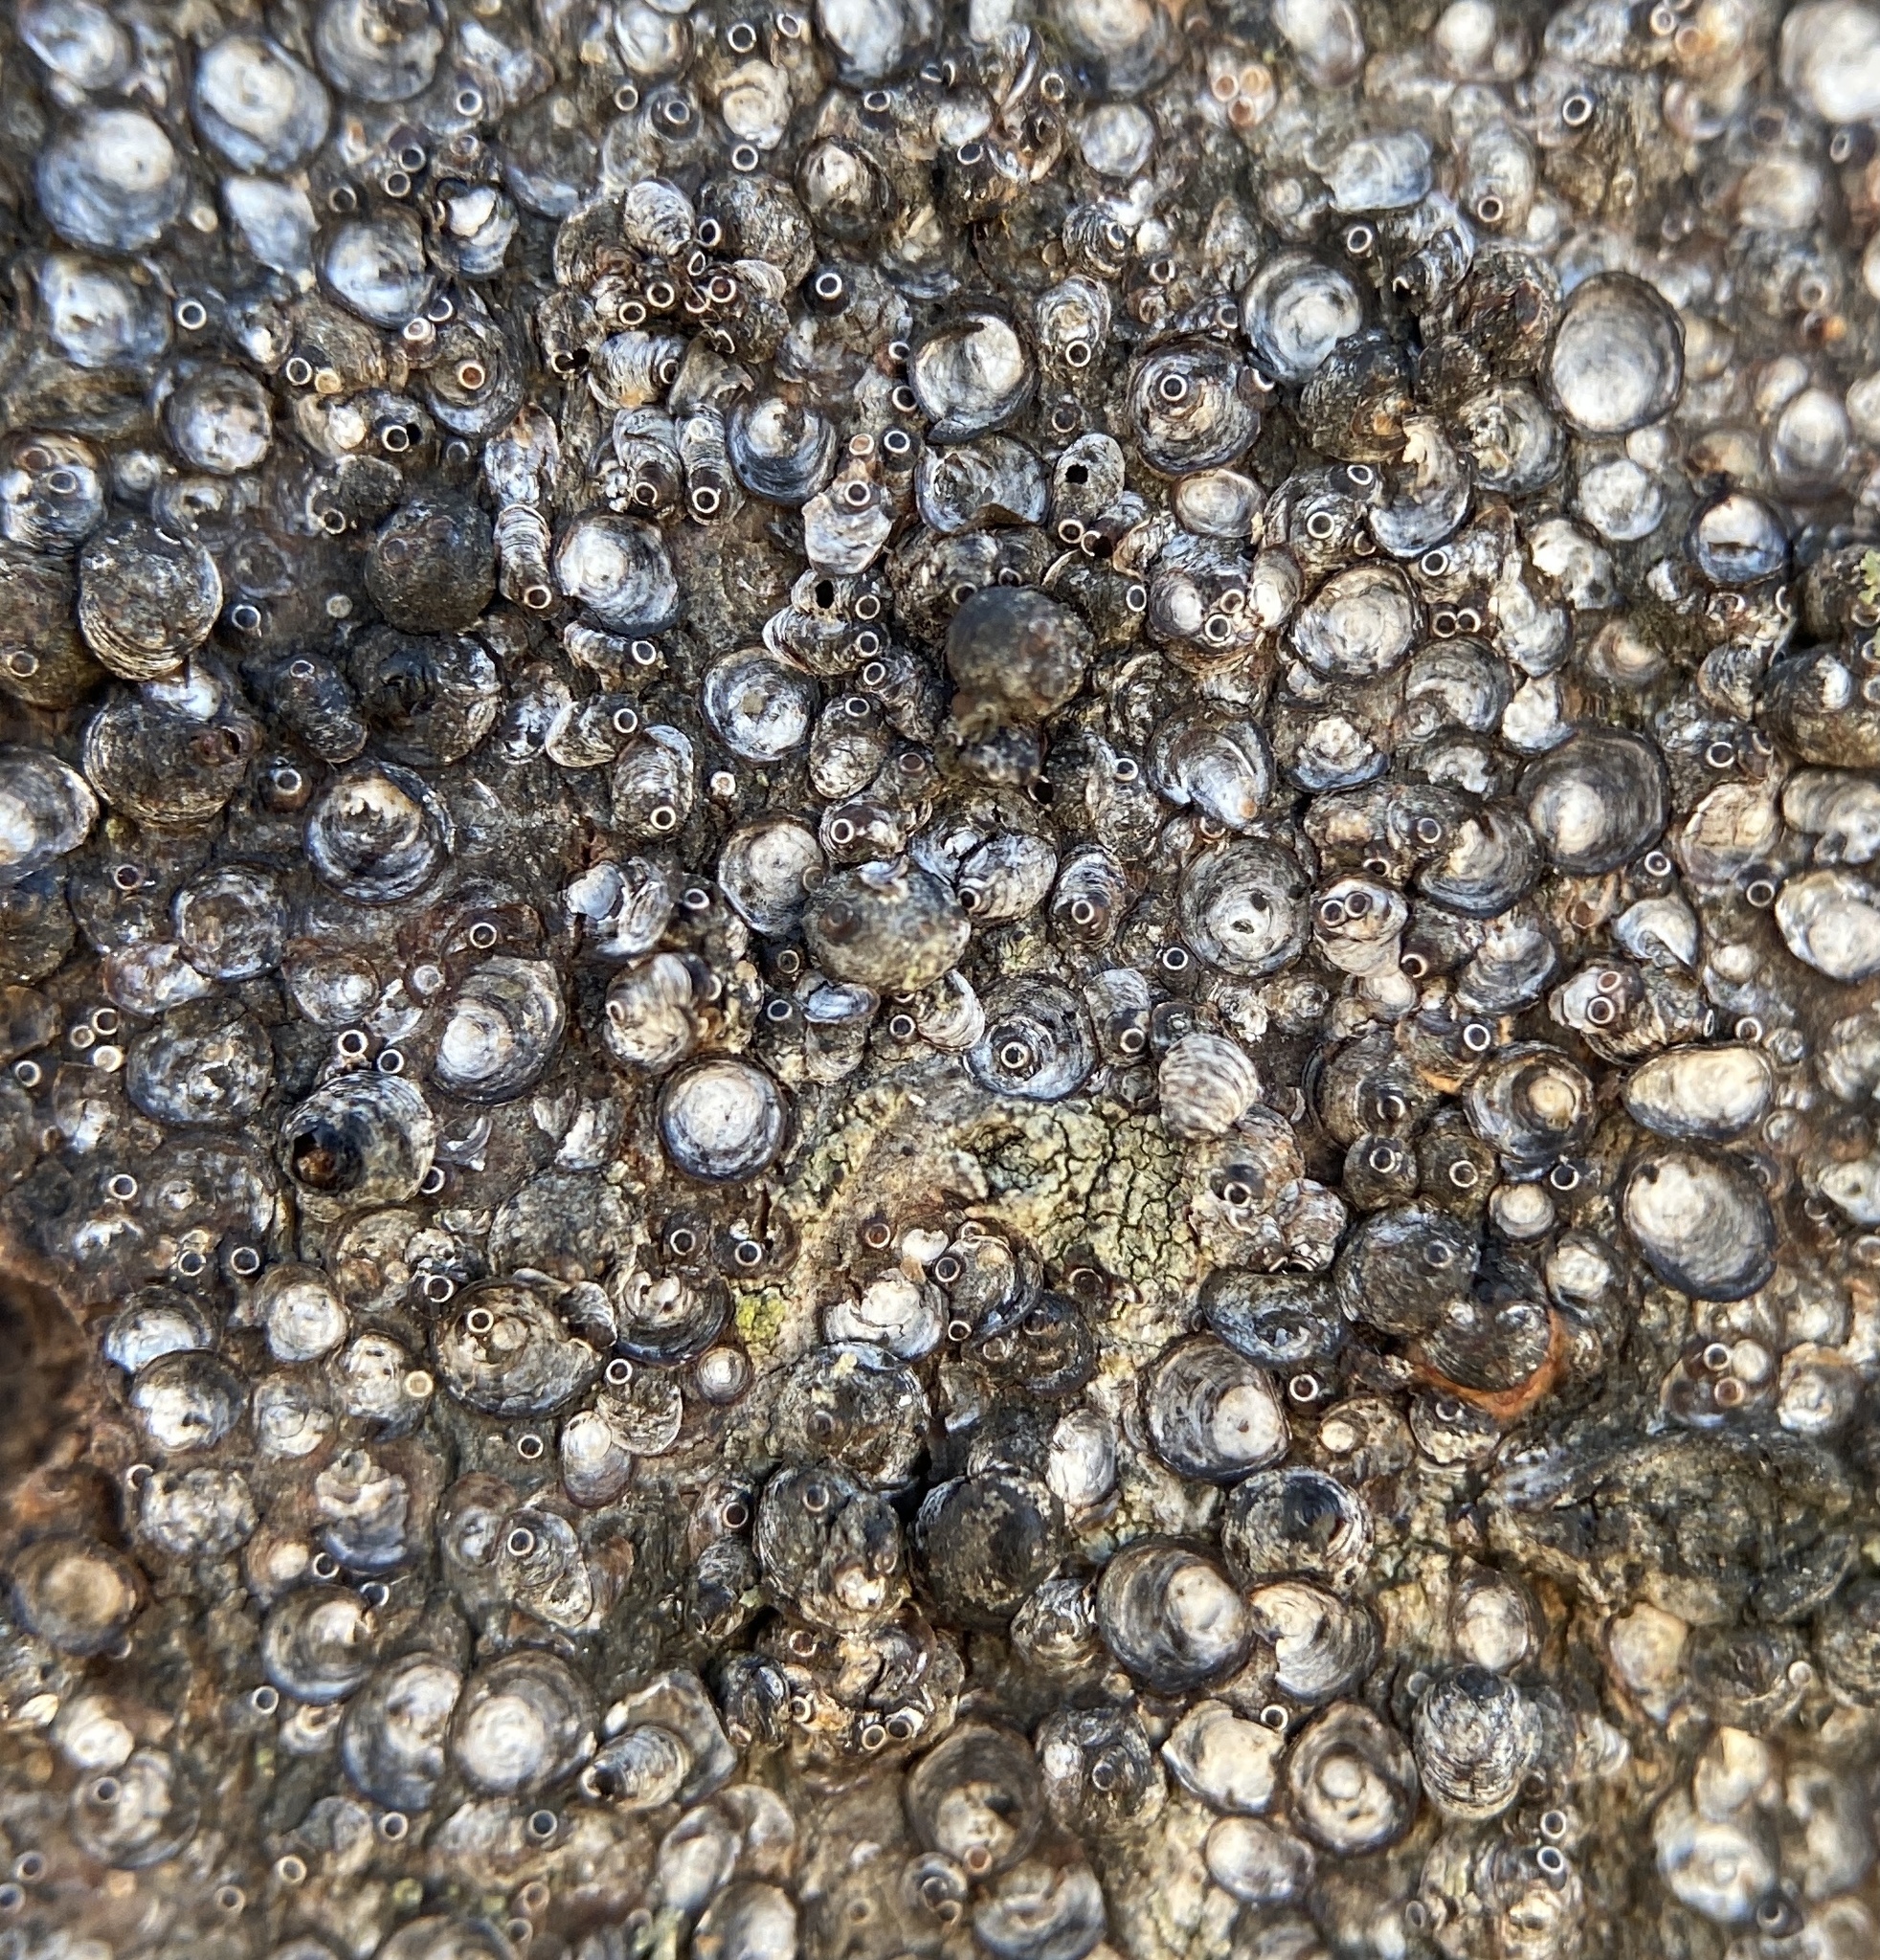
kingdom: Animalia
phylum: Arthropoda
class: Insecta
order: Hemiptera
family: Diaspididae
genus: Melanaspis
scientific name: Melanaspis tenebricosa
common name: Gloomy scale
